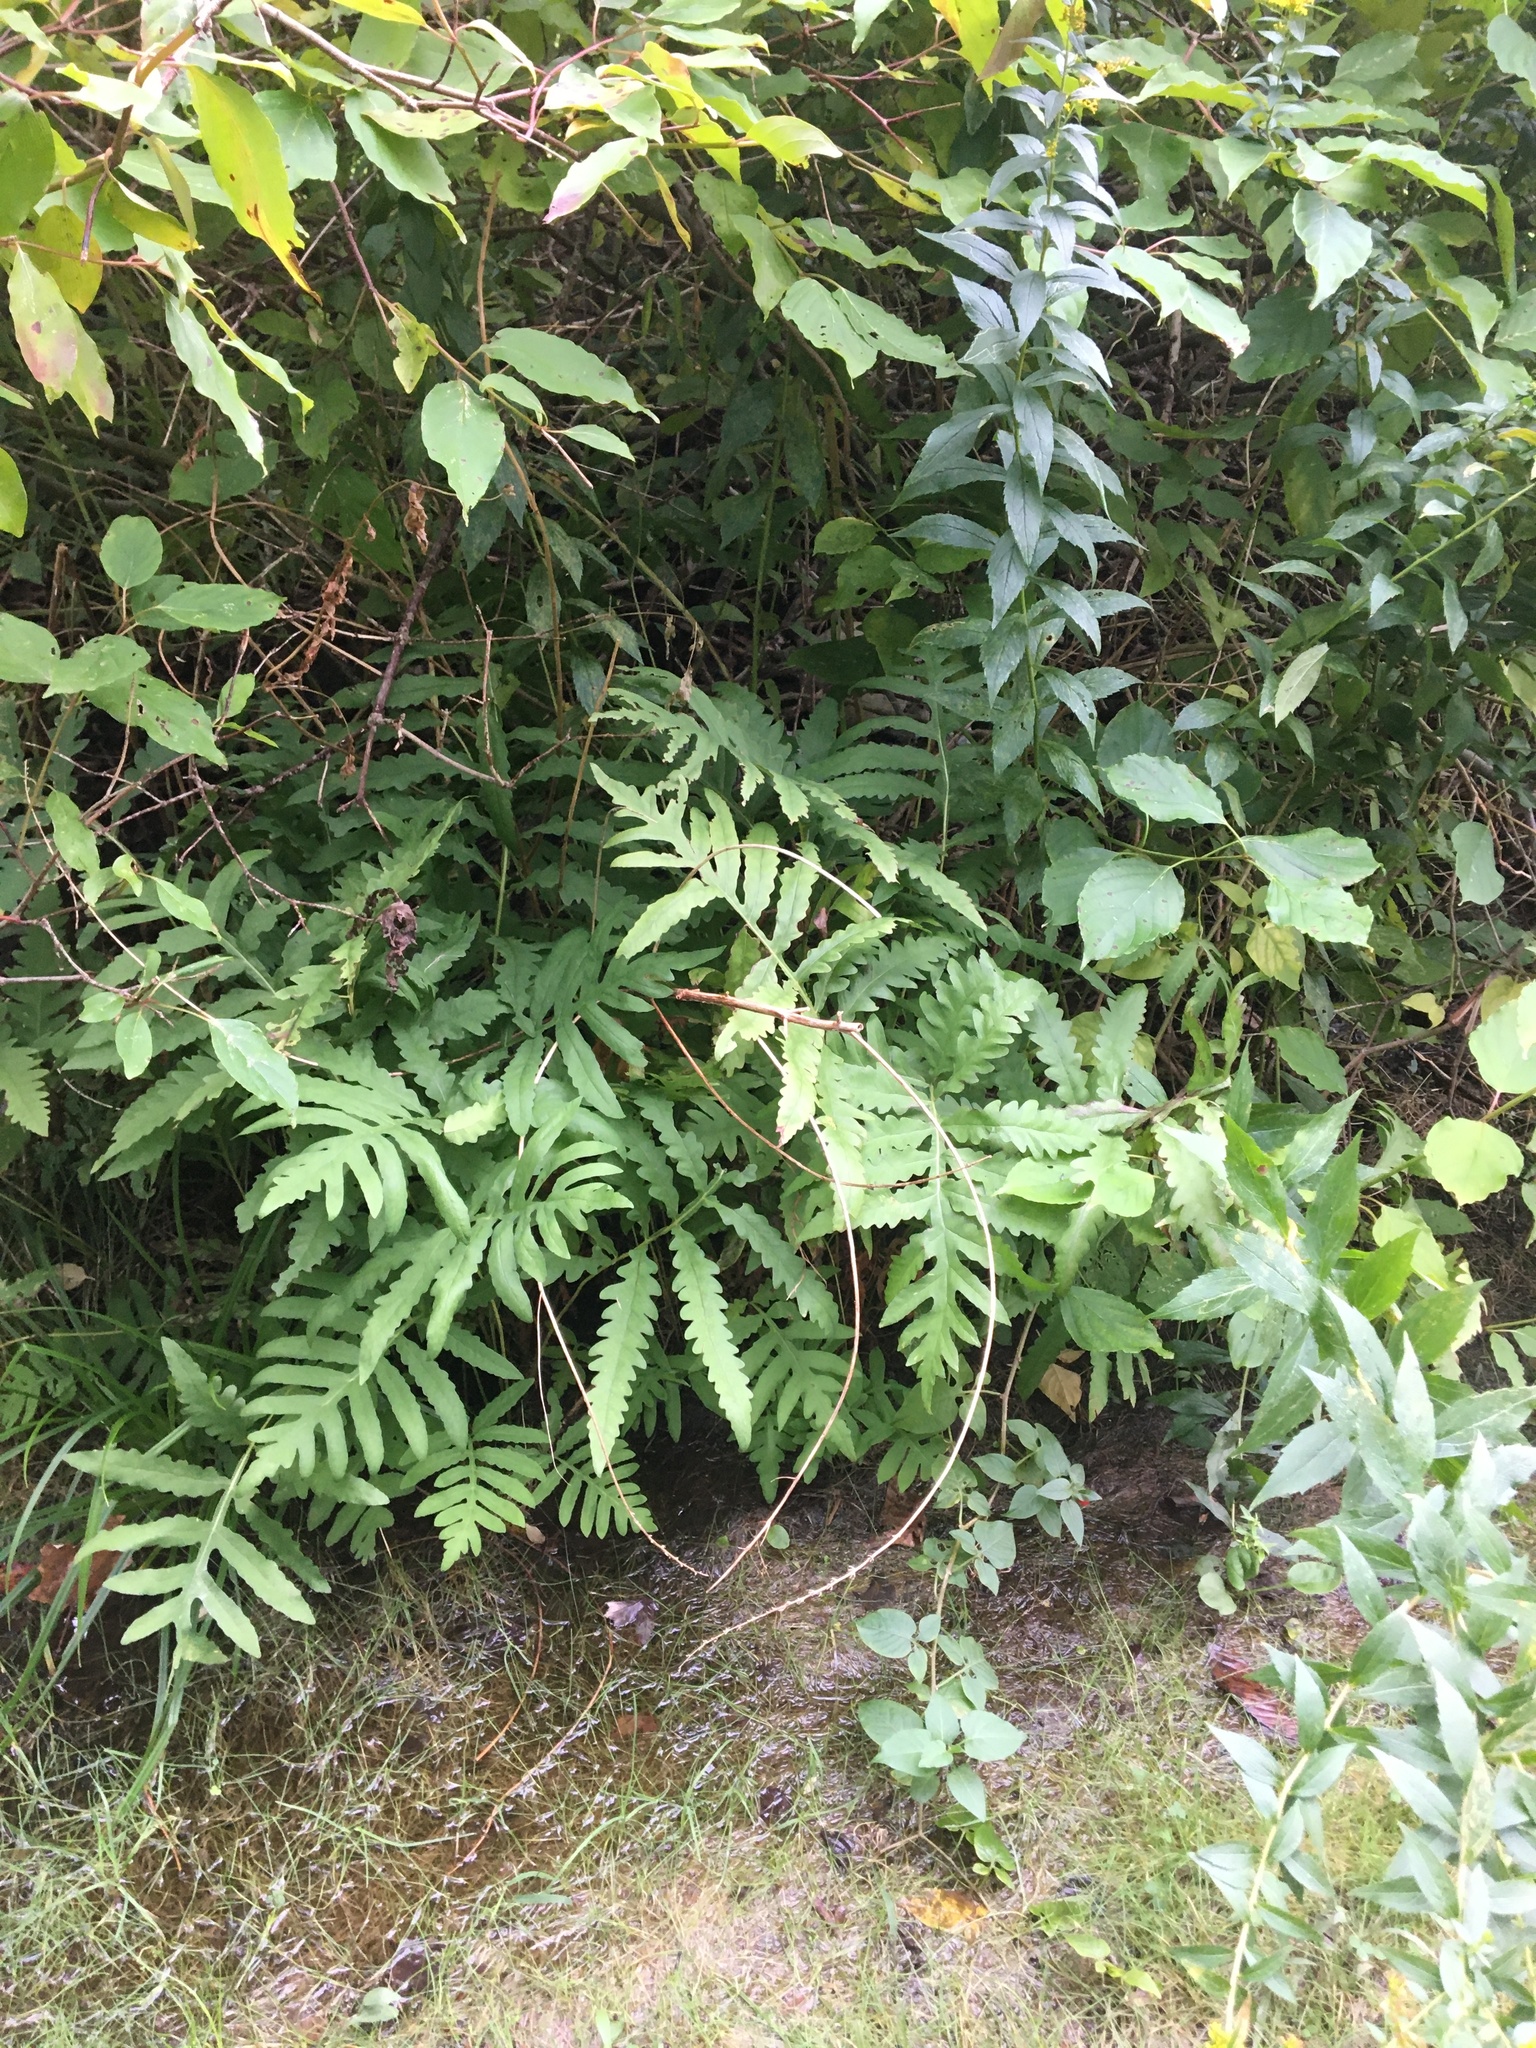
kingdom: Plantae
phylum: Tracheophyta
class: Polypodiopsida
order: Polypodiales
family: Onocleaceae
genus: Onoclea
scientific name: Onoclea sensibilis
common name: Sensitive fern
